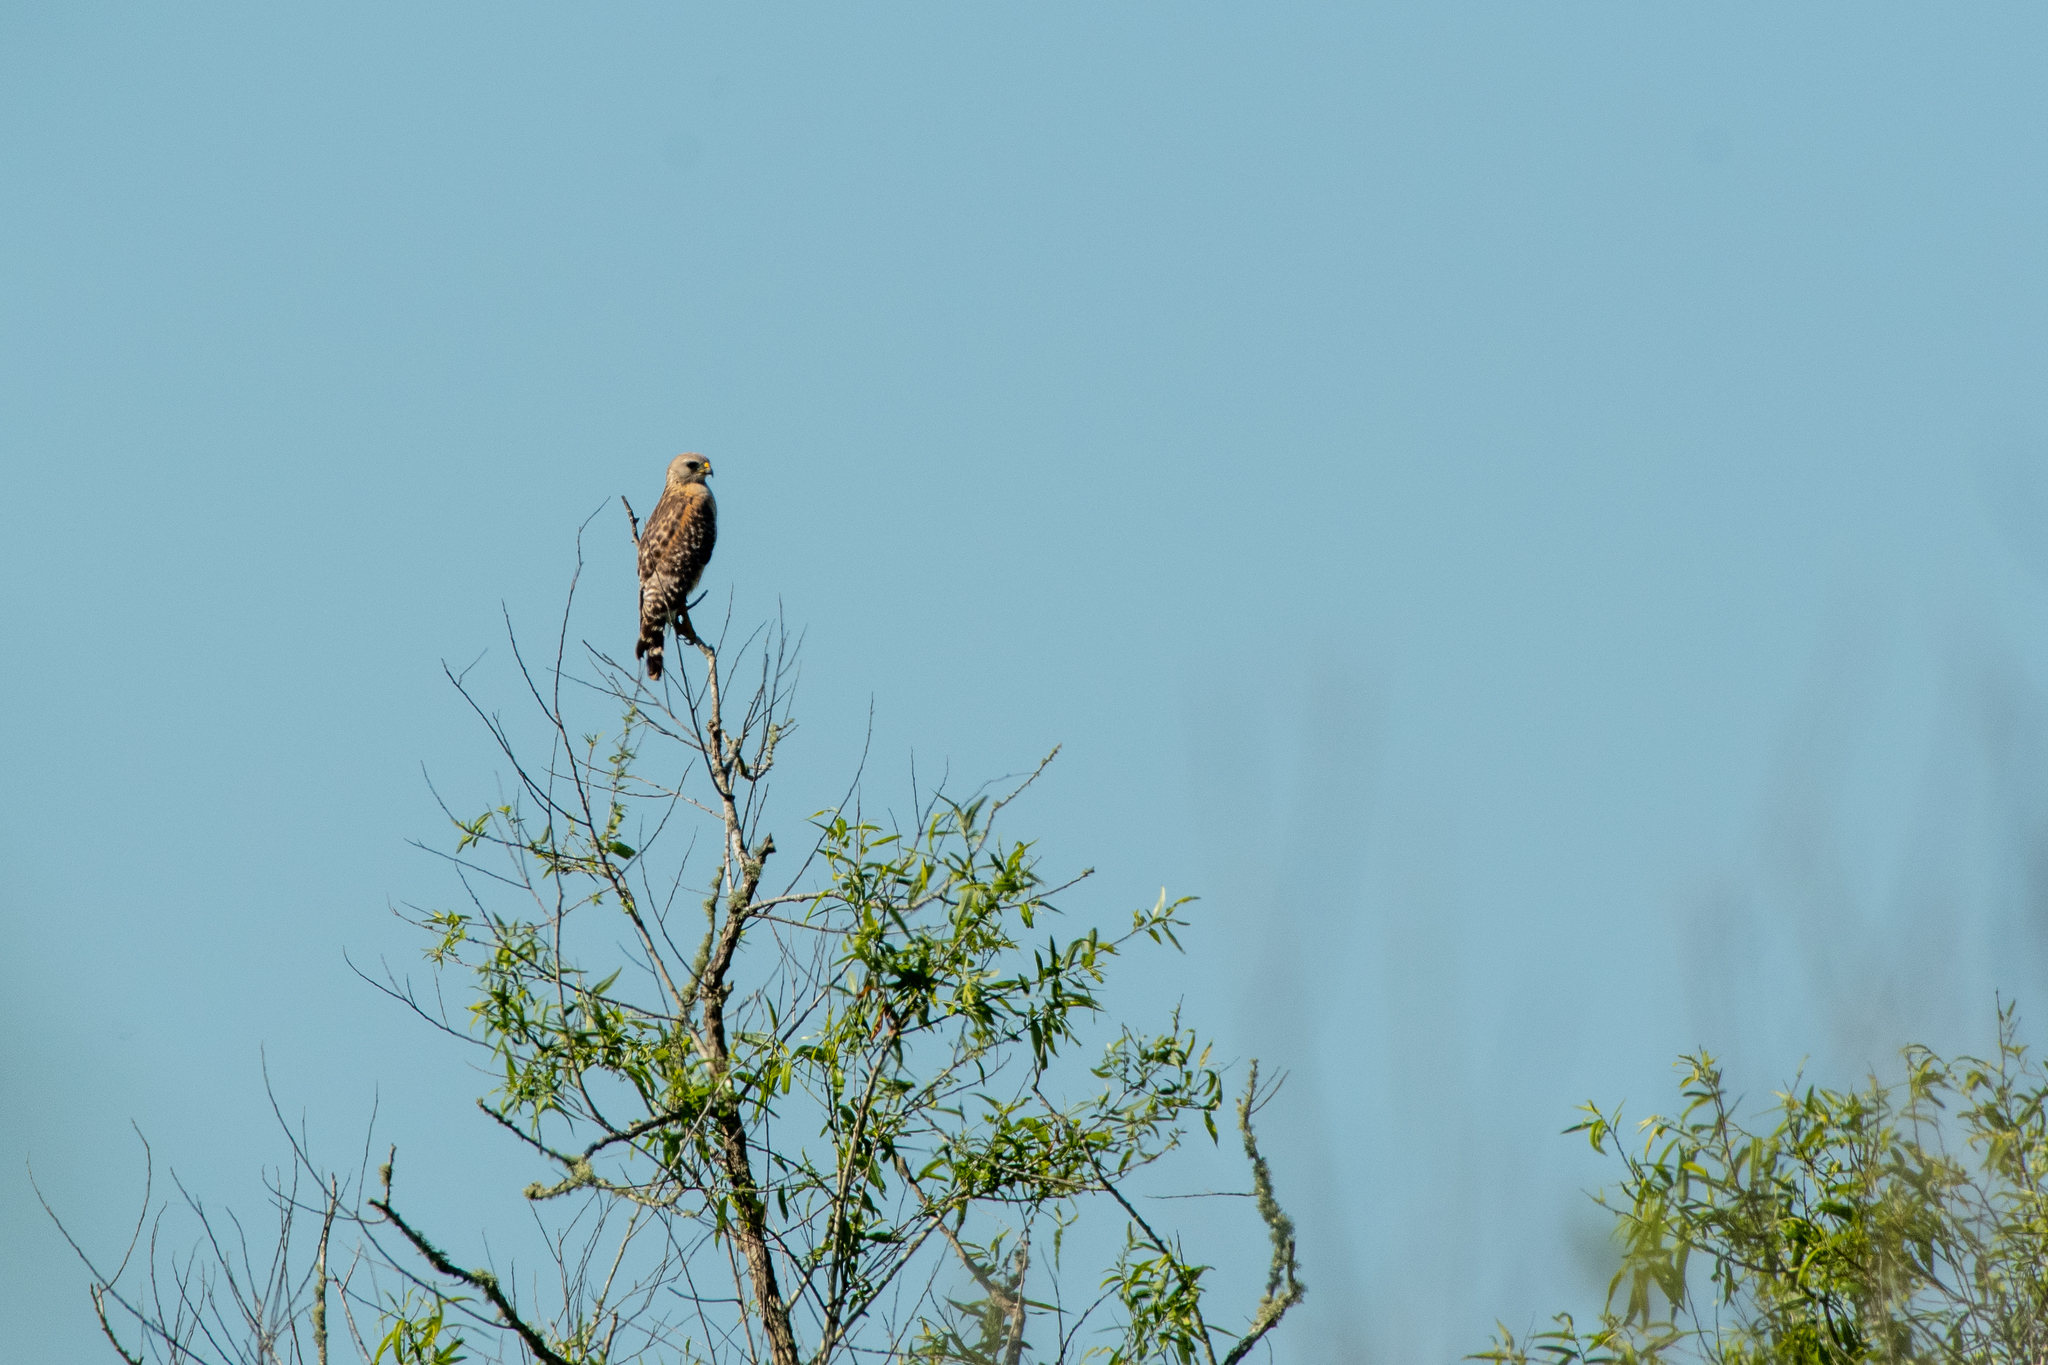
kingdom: Animalia
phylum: Chordata
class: Aves
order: Accipitriformes
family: Accipitridae
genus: Buteo
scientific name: Buteo lineatus
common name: Red-shouldered hawk
